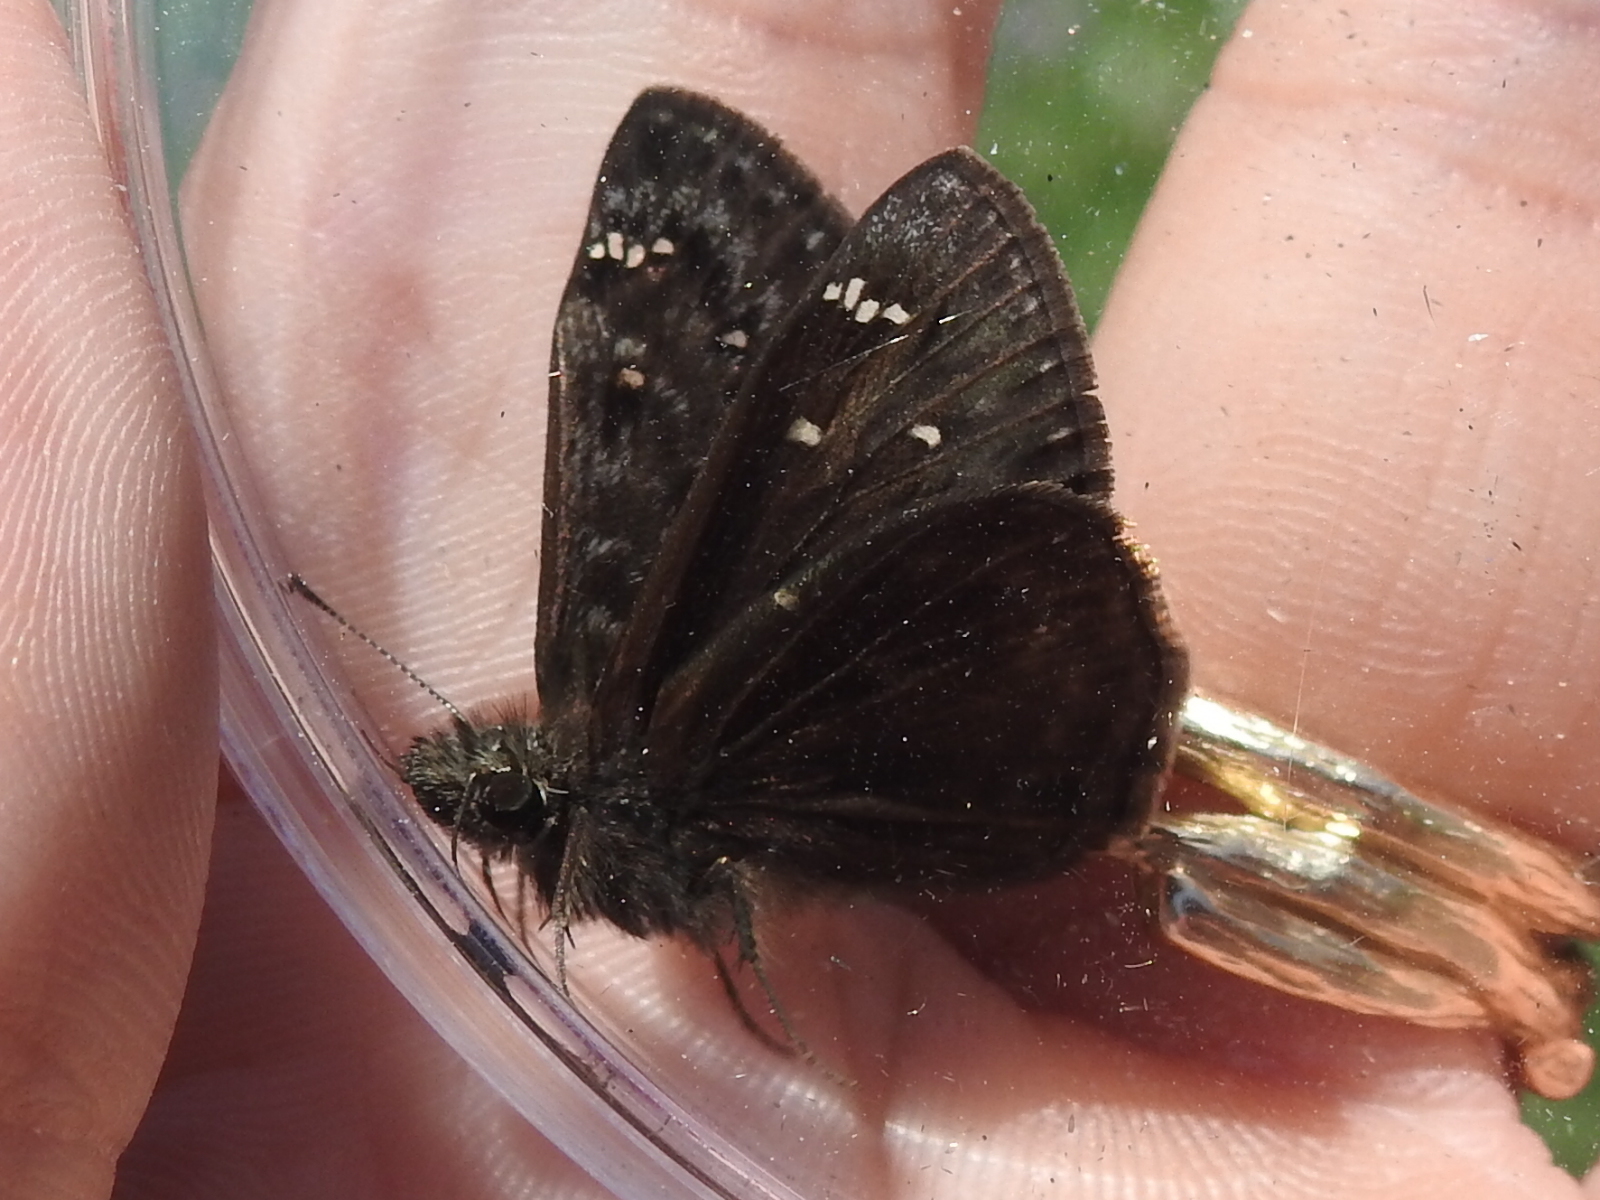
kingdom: Animalia
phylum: Arthropoda
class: Insecta
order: Lepidoptera
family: Hesperiidae
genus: Erynnis
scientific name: Erynnis horatius
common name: Horace's duskywing
